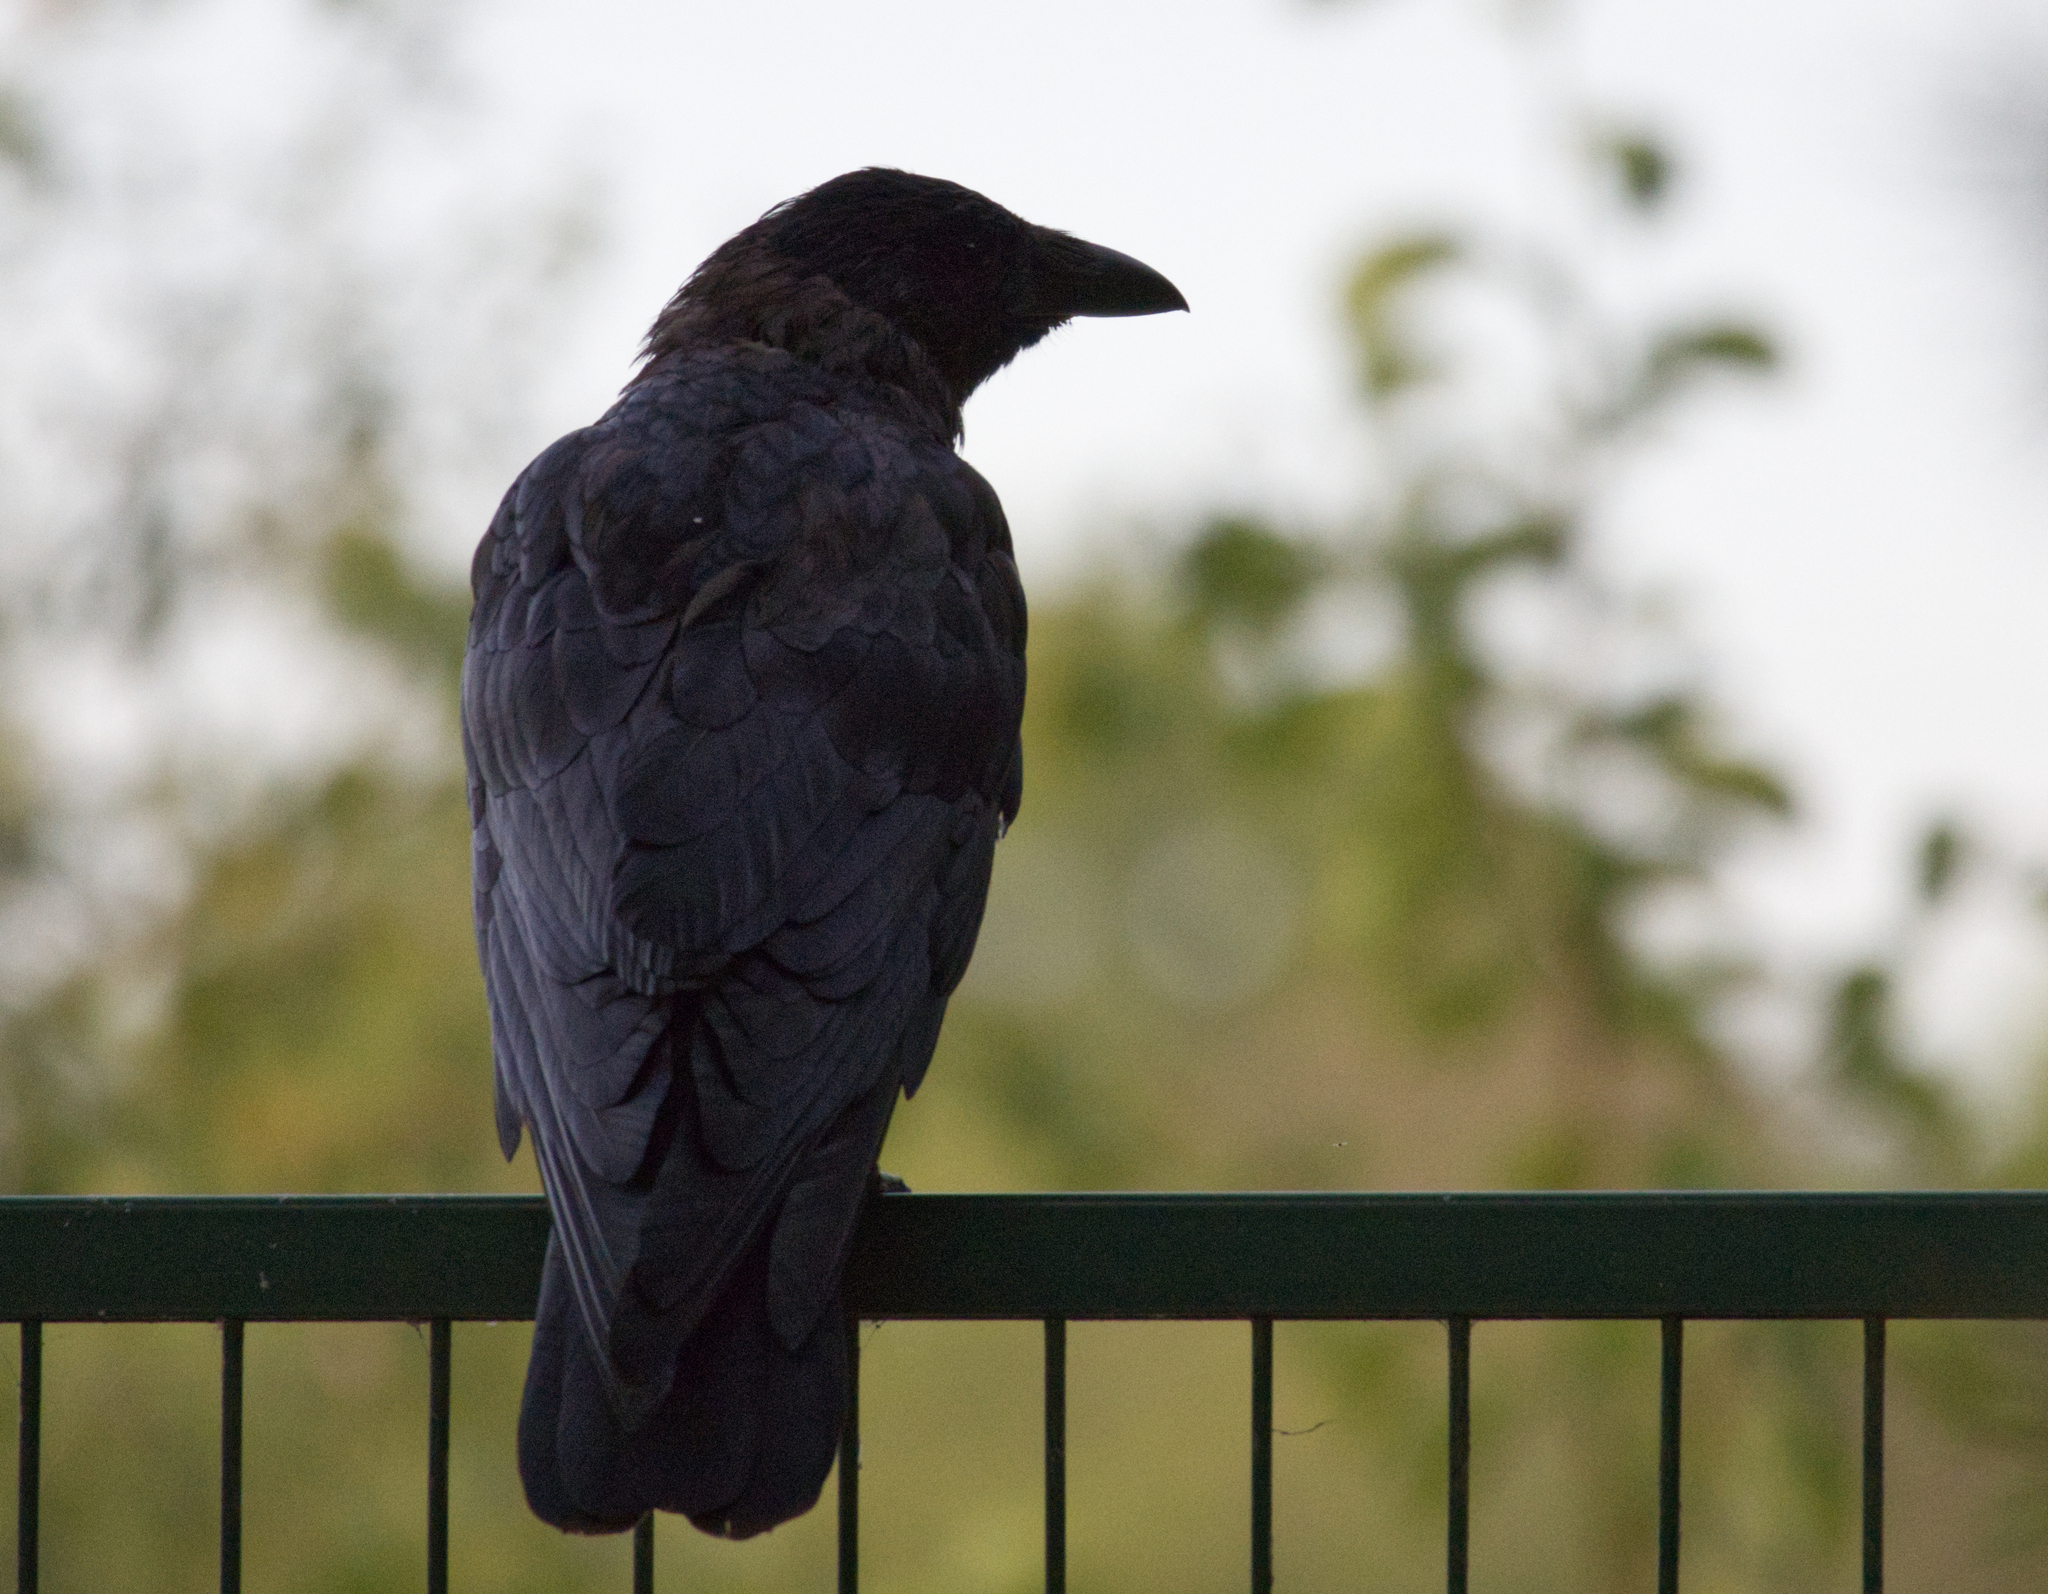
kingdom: Animalia
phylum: Chordata
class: Aves
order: Passeriformes
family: Corvidae
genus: Corvus
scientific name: Corvus corone
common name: Carrion crow
